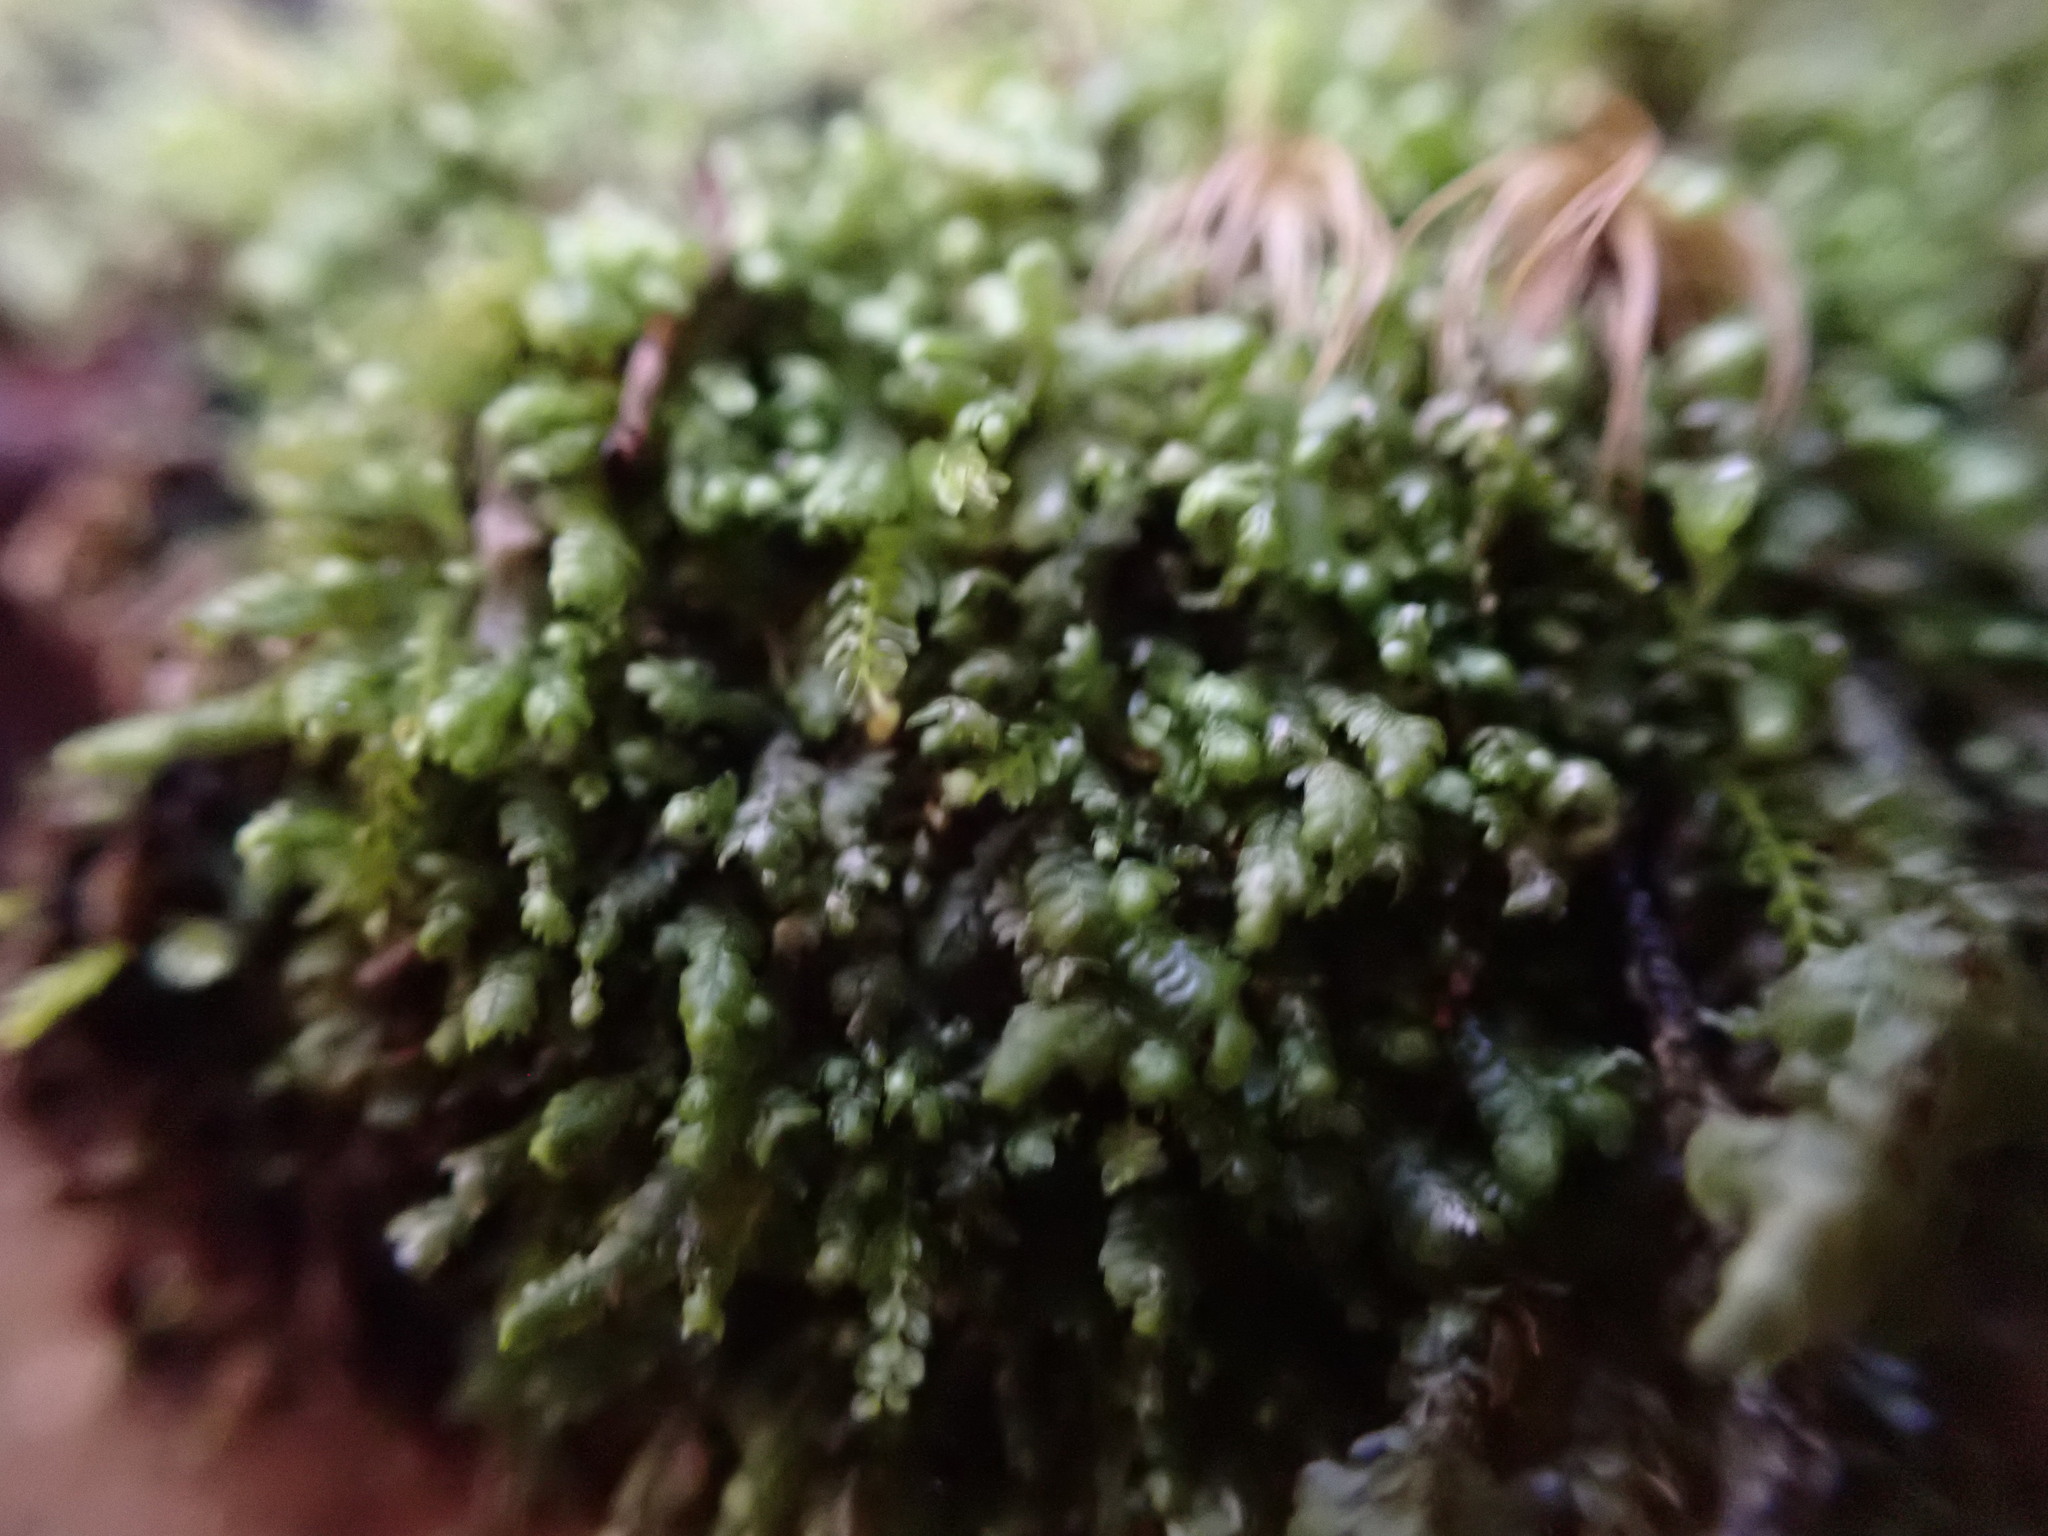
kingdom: Plantae
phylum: Marchantiophyta
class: Jungermanniopsida
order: Jungermanniales
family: Lepidoziaceae
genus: Bazzania
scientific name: Bazzania denudata
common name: Naked whipwort
